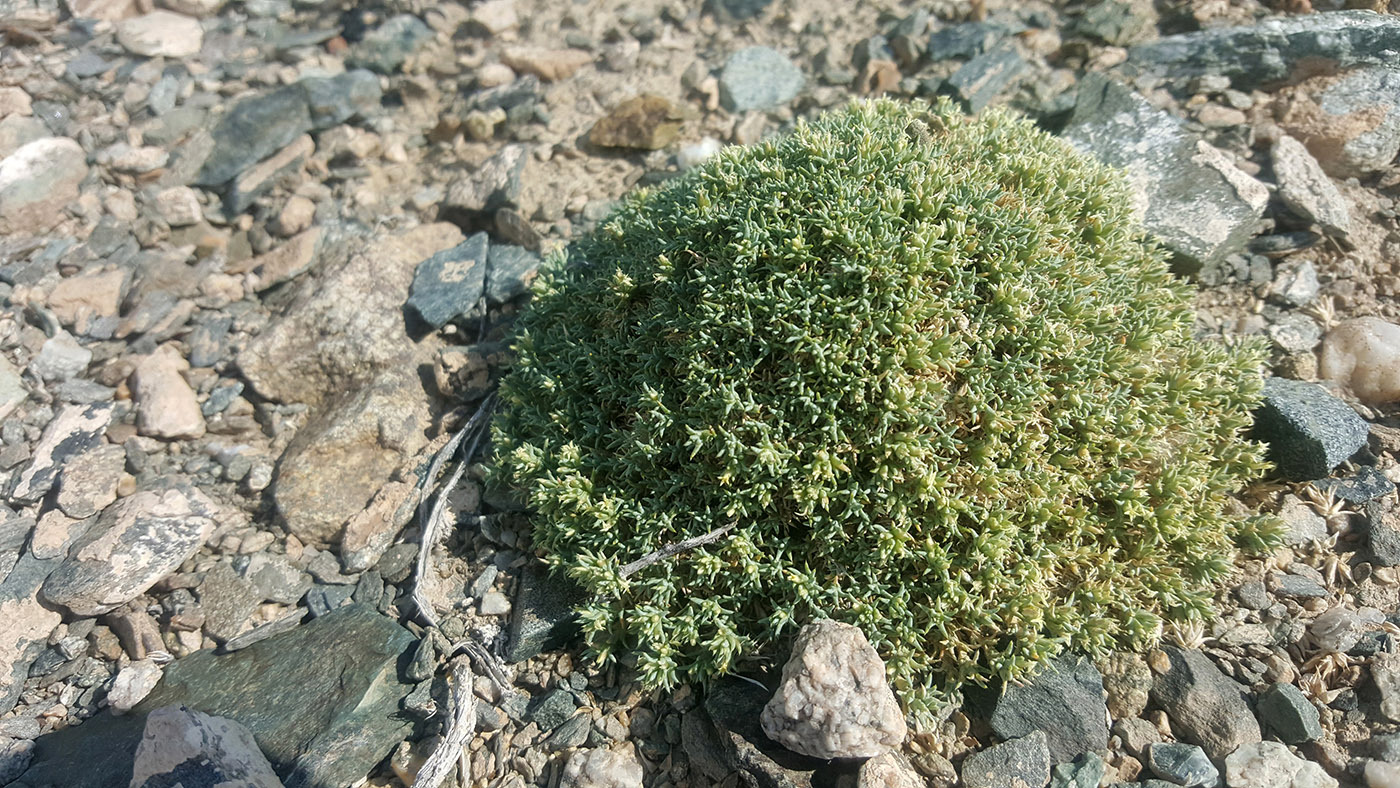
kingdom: Plantae
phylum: Tracheophyta
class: Magnoliopsida
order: Caryophyllales
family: Amaranthaceae
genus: Nanophyton
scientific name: Nanophyton mongolicum
